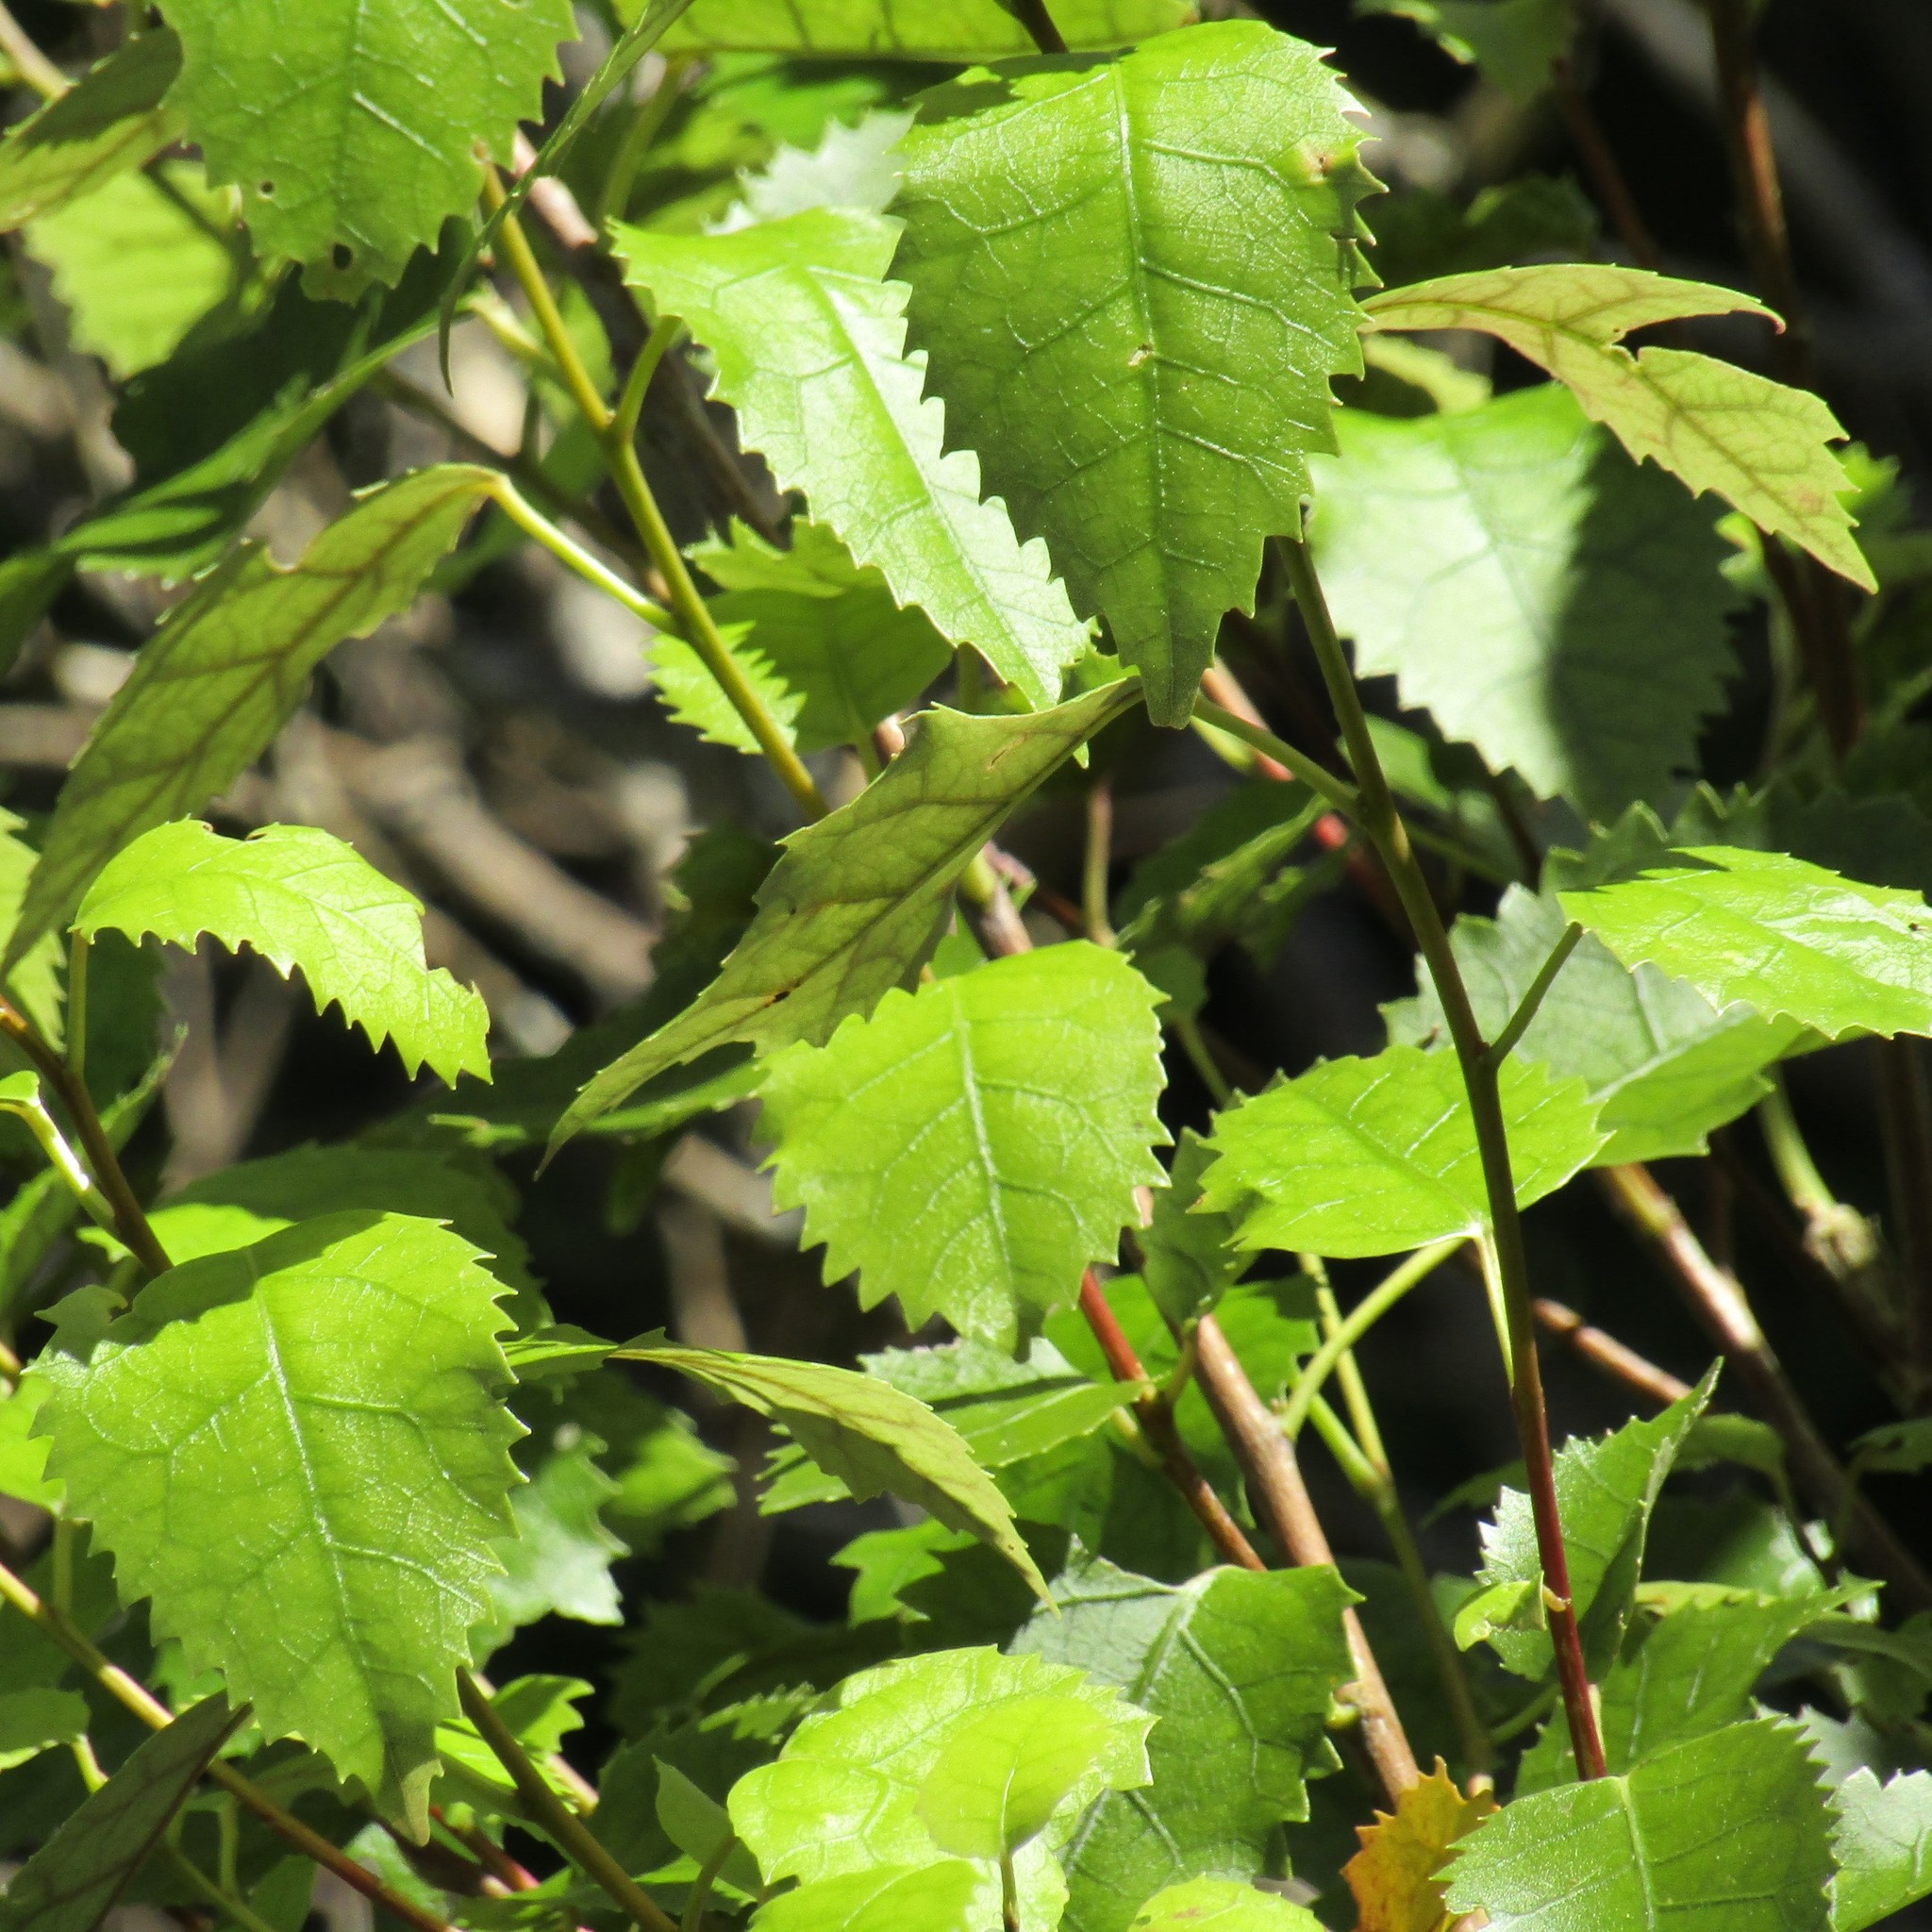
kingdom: Plantae
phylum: Tracheophyta
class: Magnoliopsida
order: Malvales
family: Malvaceae
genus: Hoheria
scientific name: Hoheria populnea
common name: Lacebark
